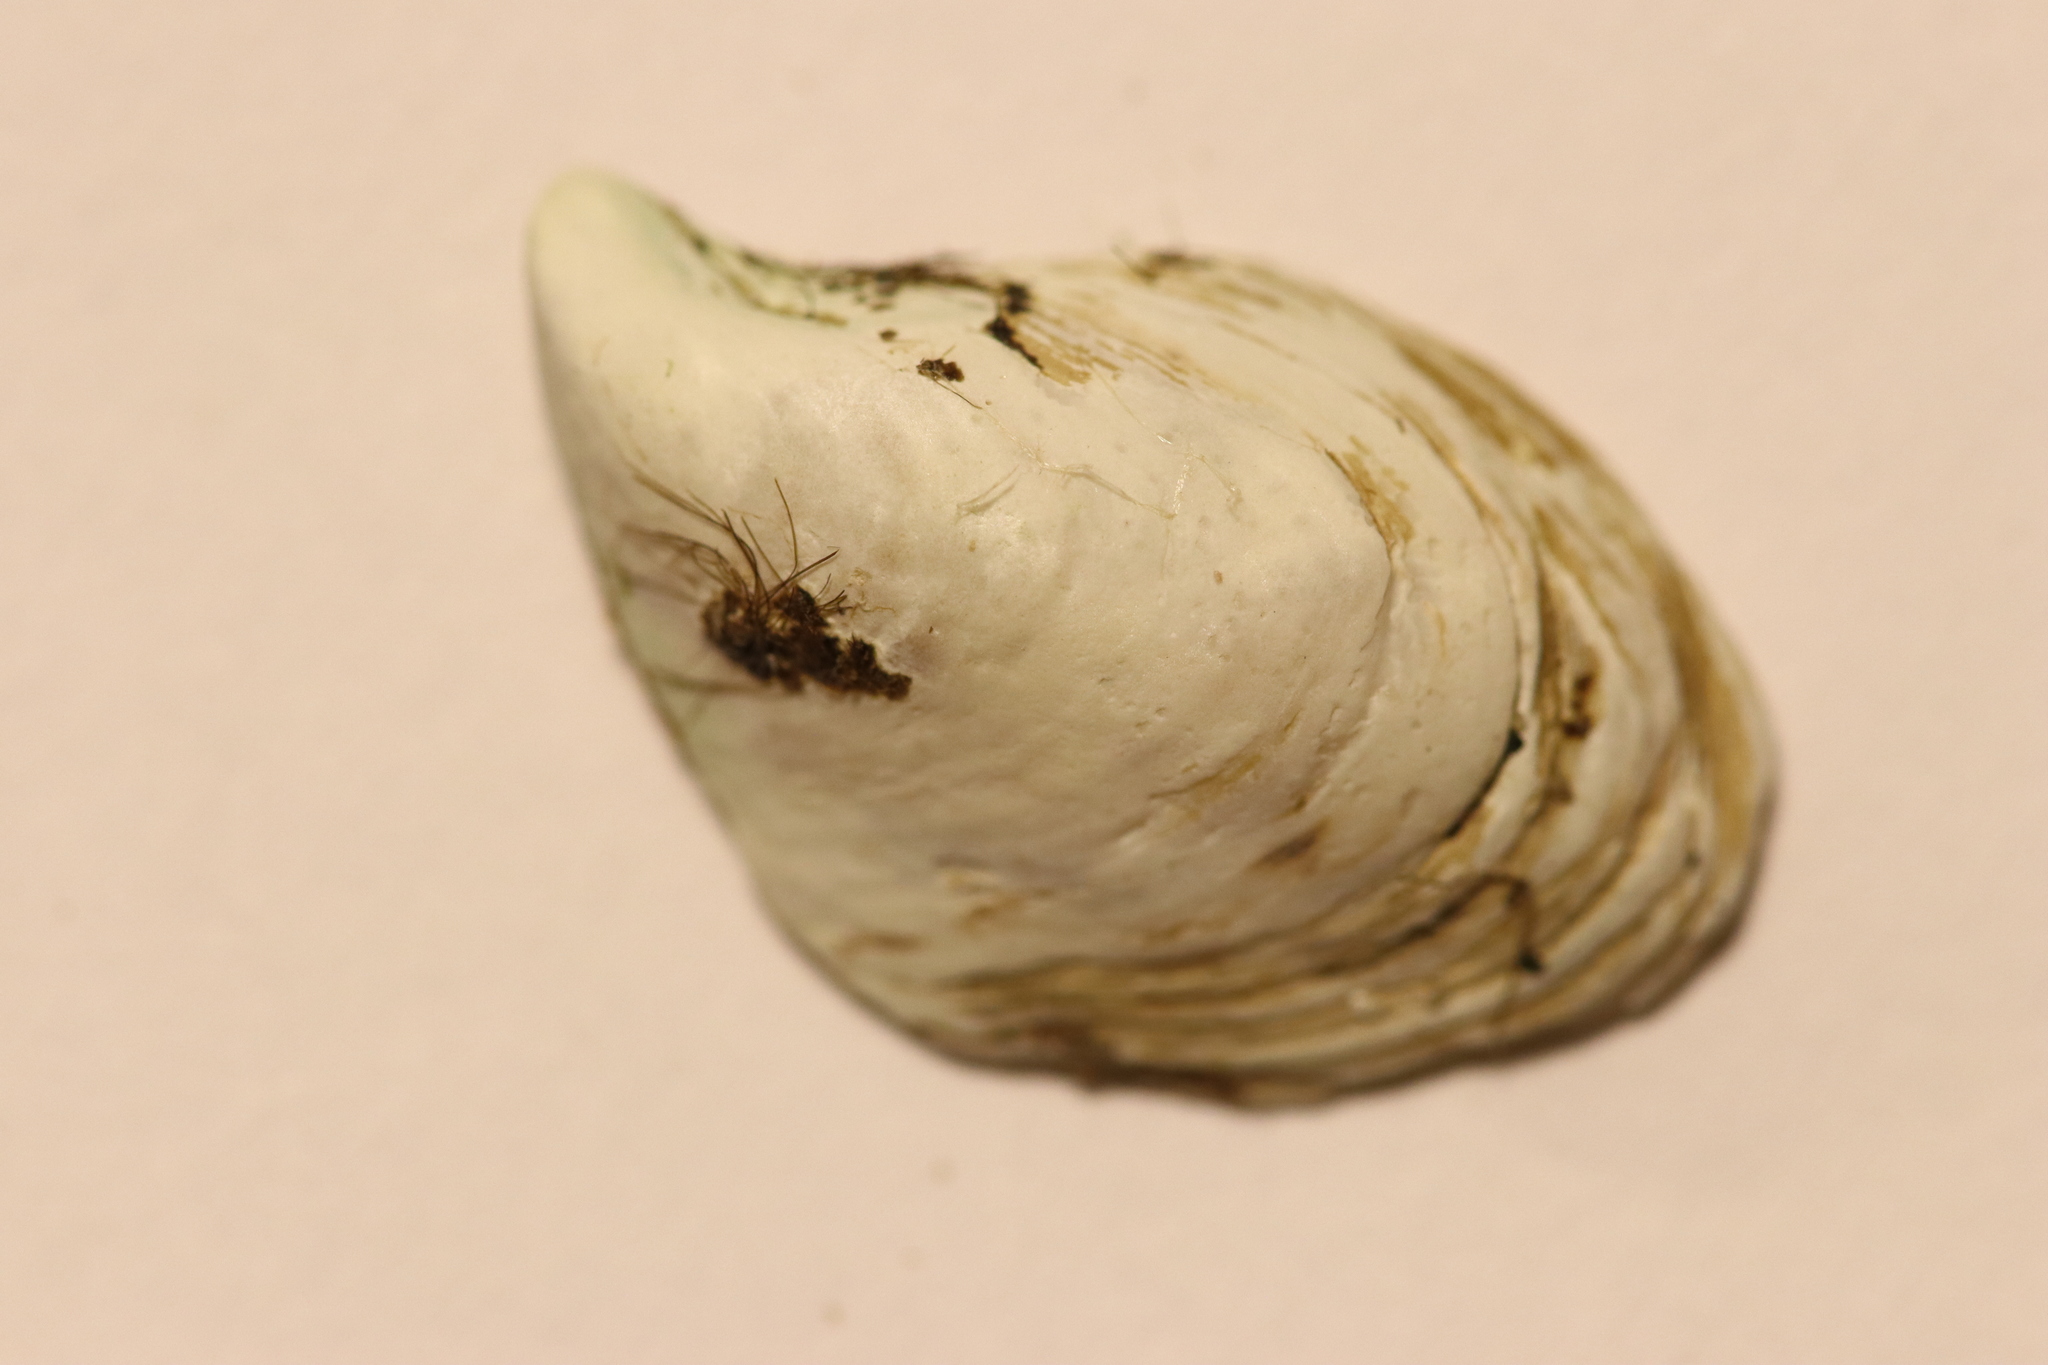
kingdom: Animalia
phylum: Mollusca
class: Bivalvia
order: Myida
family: Dreissenidae
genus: Dreissena
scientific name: Dreissena bugensis
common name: Quagga mussel
